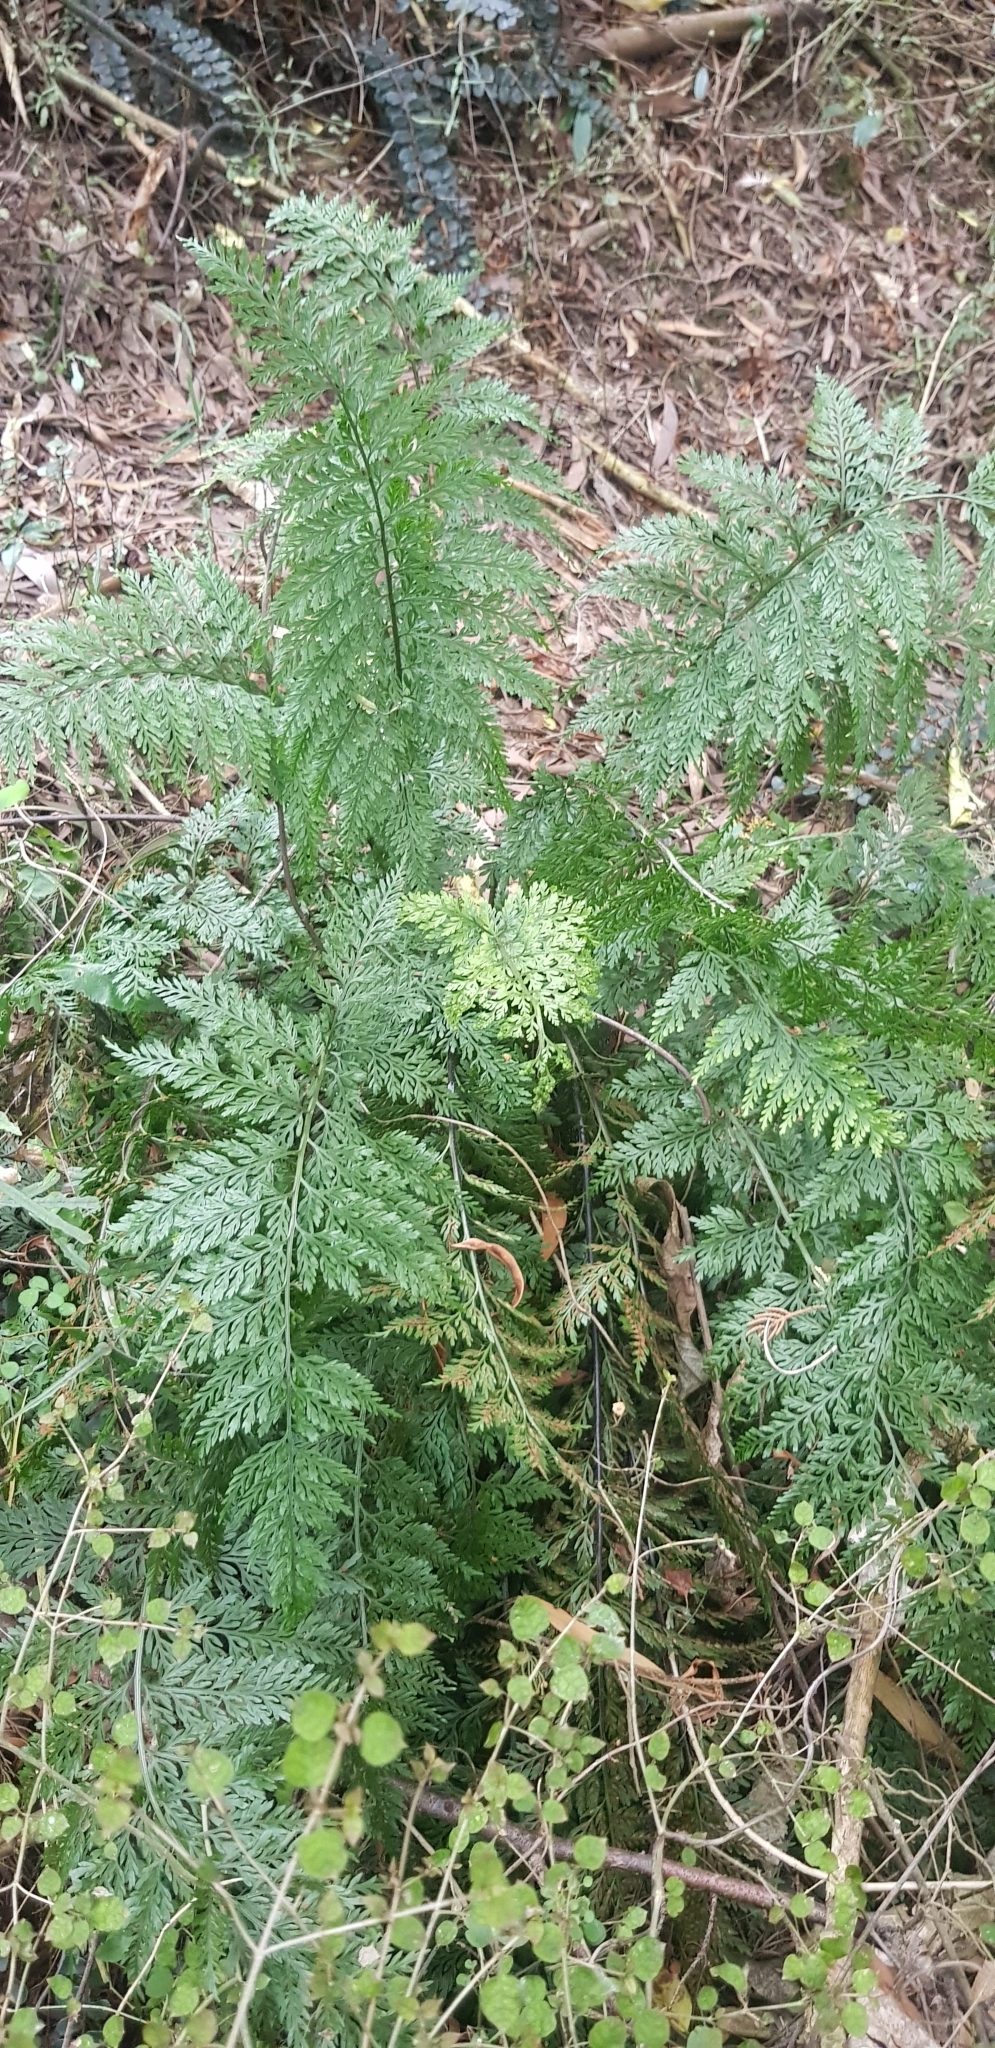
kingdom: Plantae
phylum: Tracheophyta
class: Polypodiopsida
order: Polypodiales
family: Aspleniaceae
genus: Asplenium
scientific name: Asplenium
